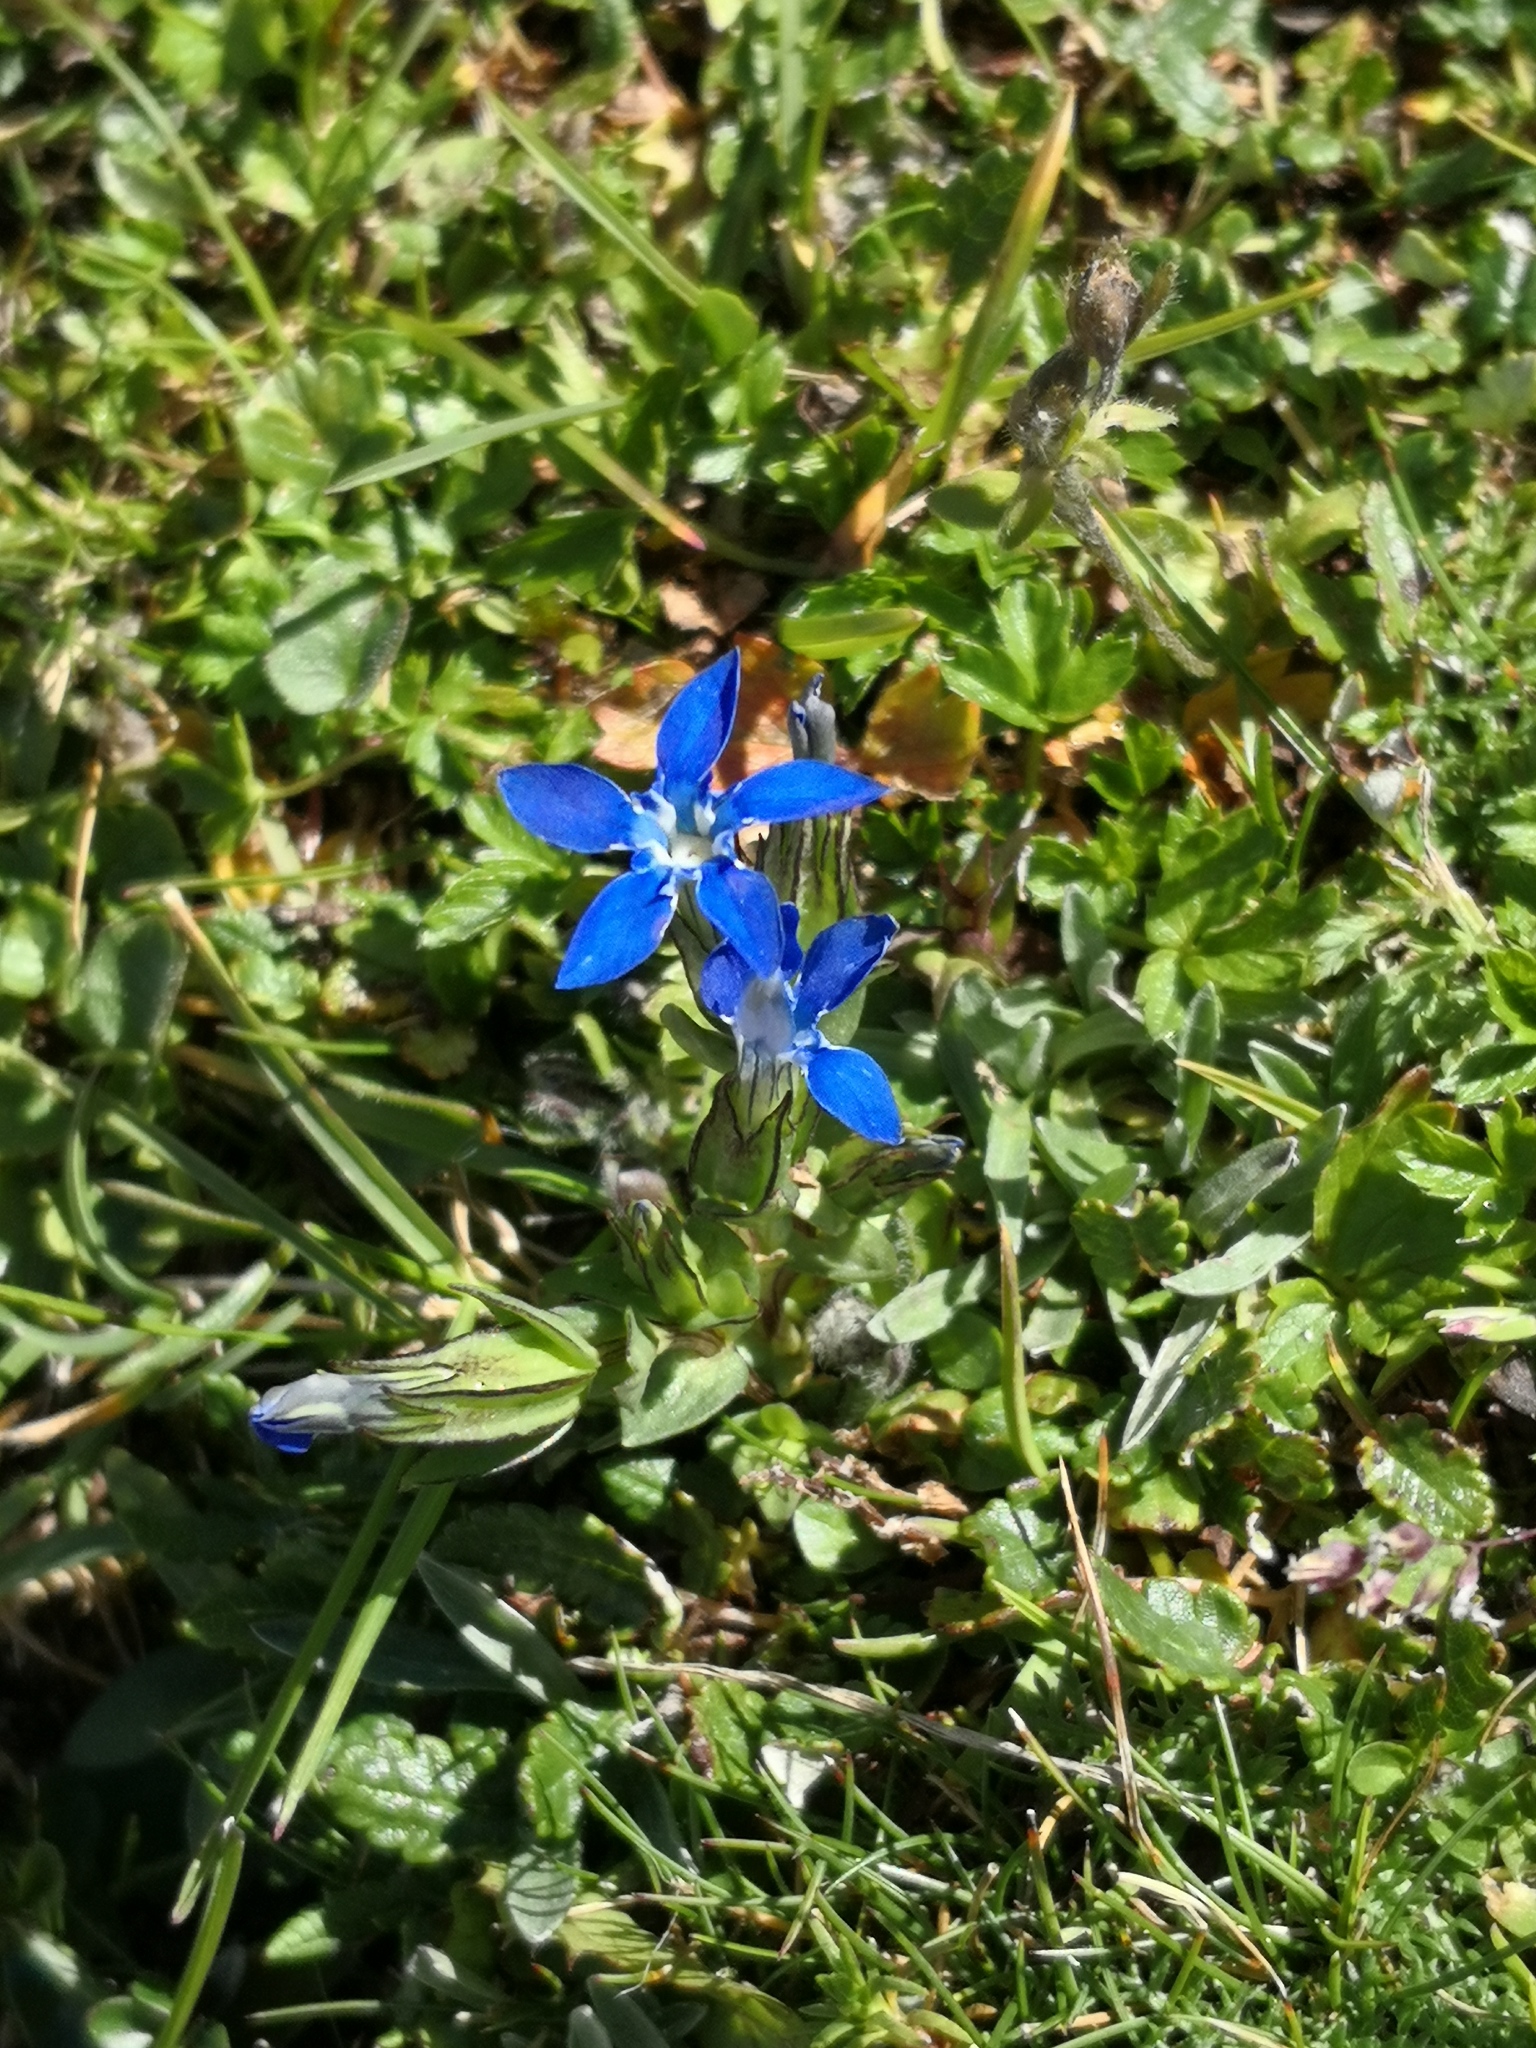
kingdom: Plantae
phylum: Tracheophyta
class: Magnoliopsida
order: Gentianales
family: Gentianaceae
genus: Gentiana
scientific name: Gentiana nivalis
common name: Alpine gentian
